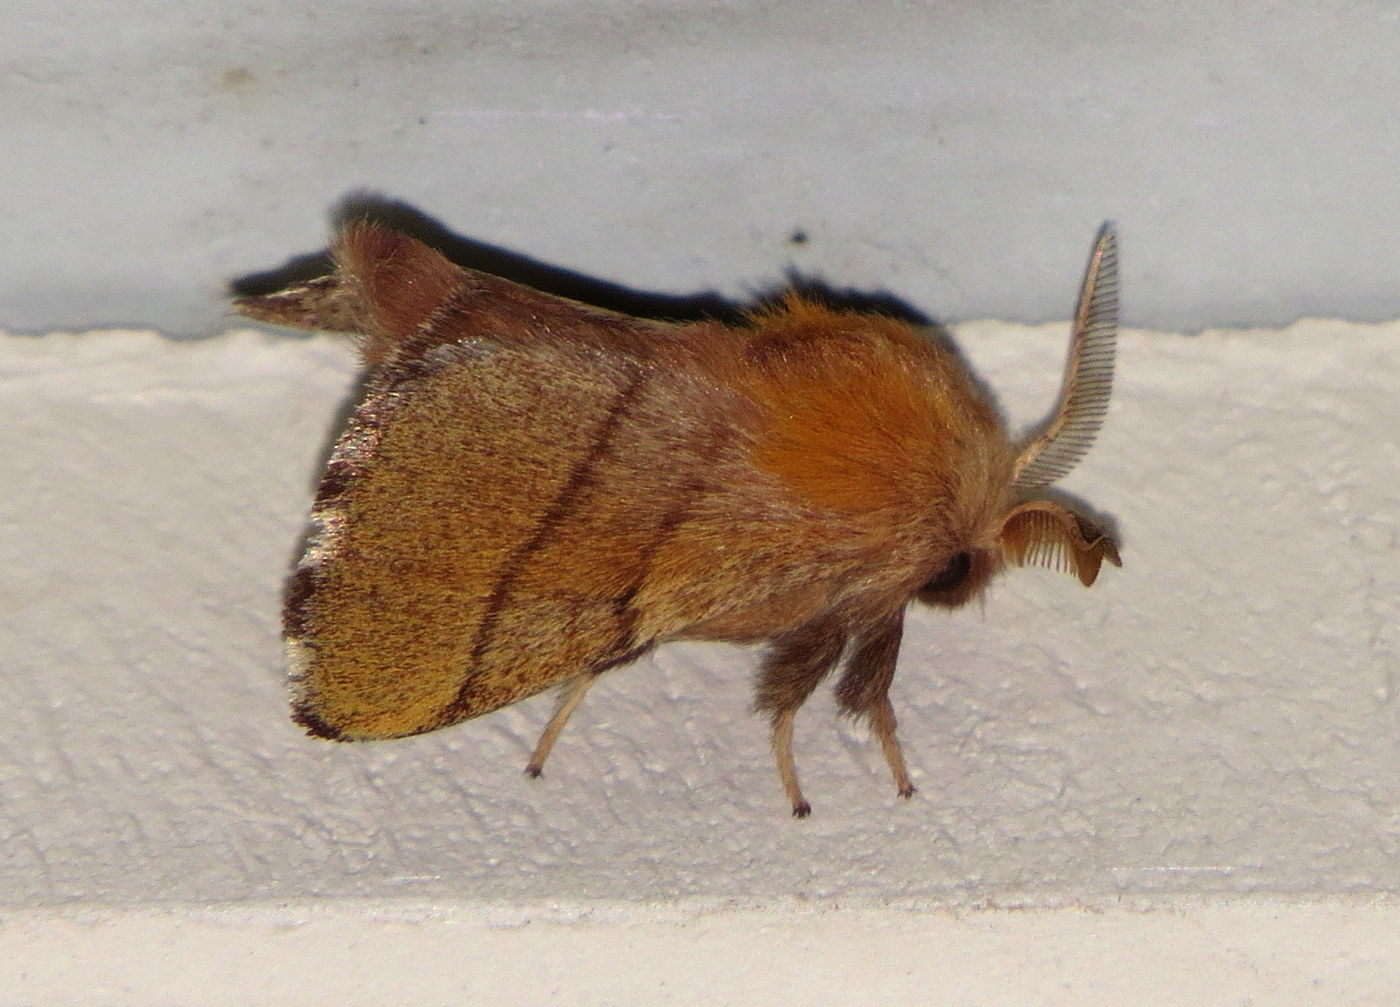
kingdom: Animalia
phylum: Arthropoda
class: Insecta
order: Lepidoptera
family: Lasiocampidae
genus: Malacosoma
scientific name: Malacosoma disstria
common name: Forest tent caterpillar
